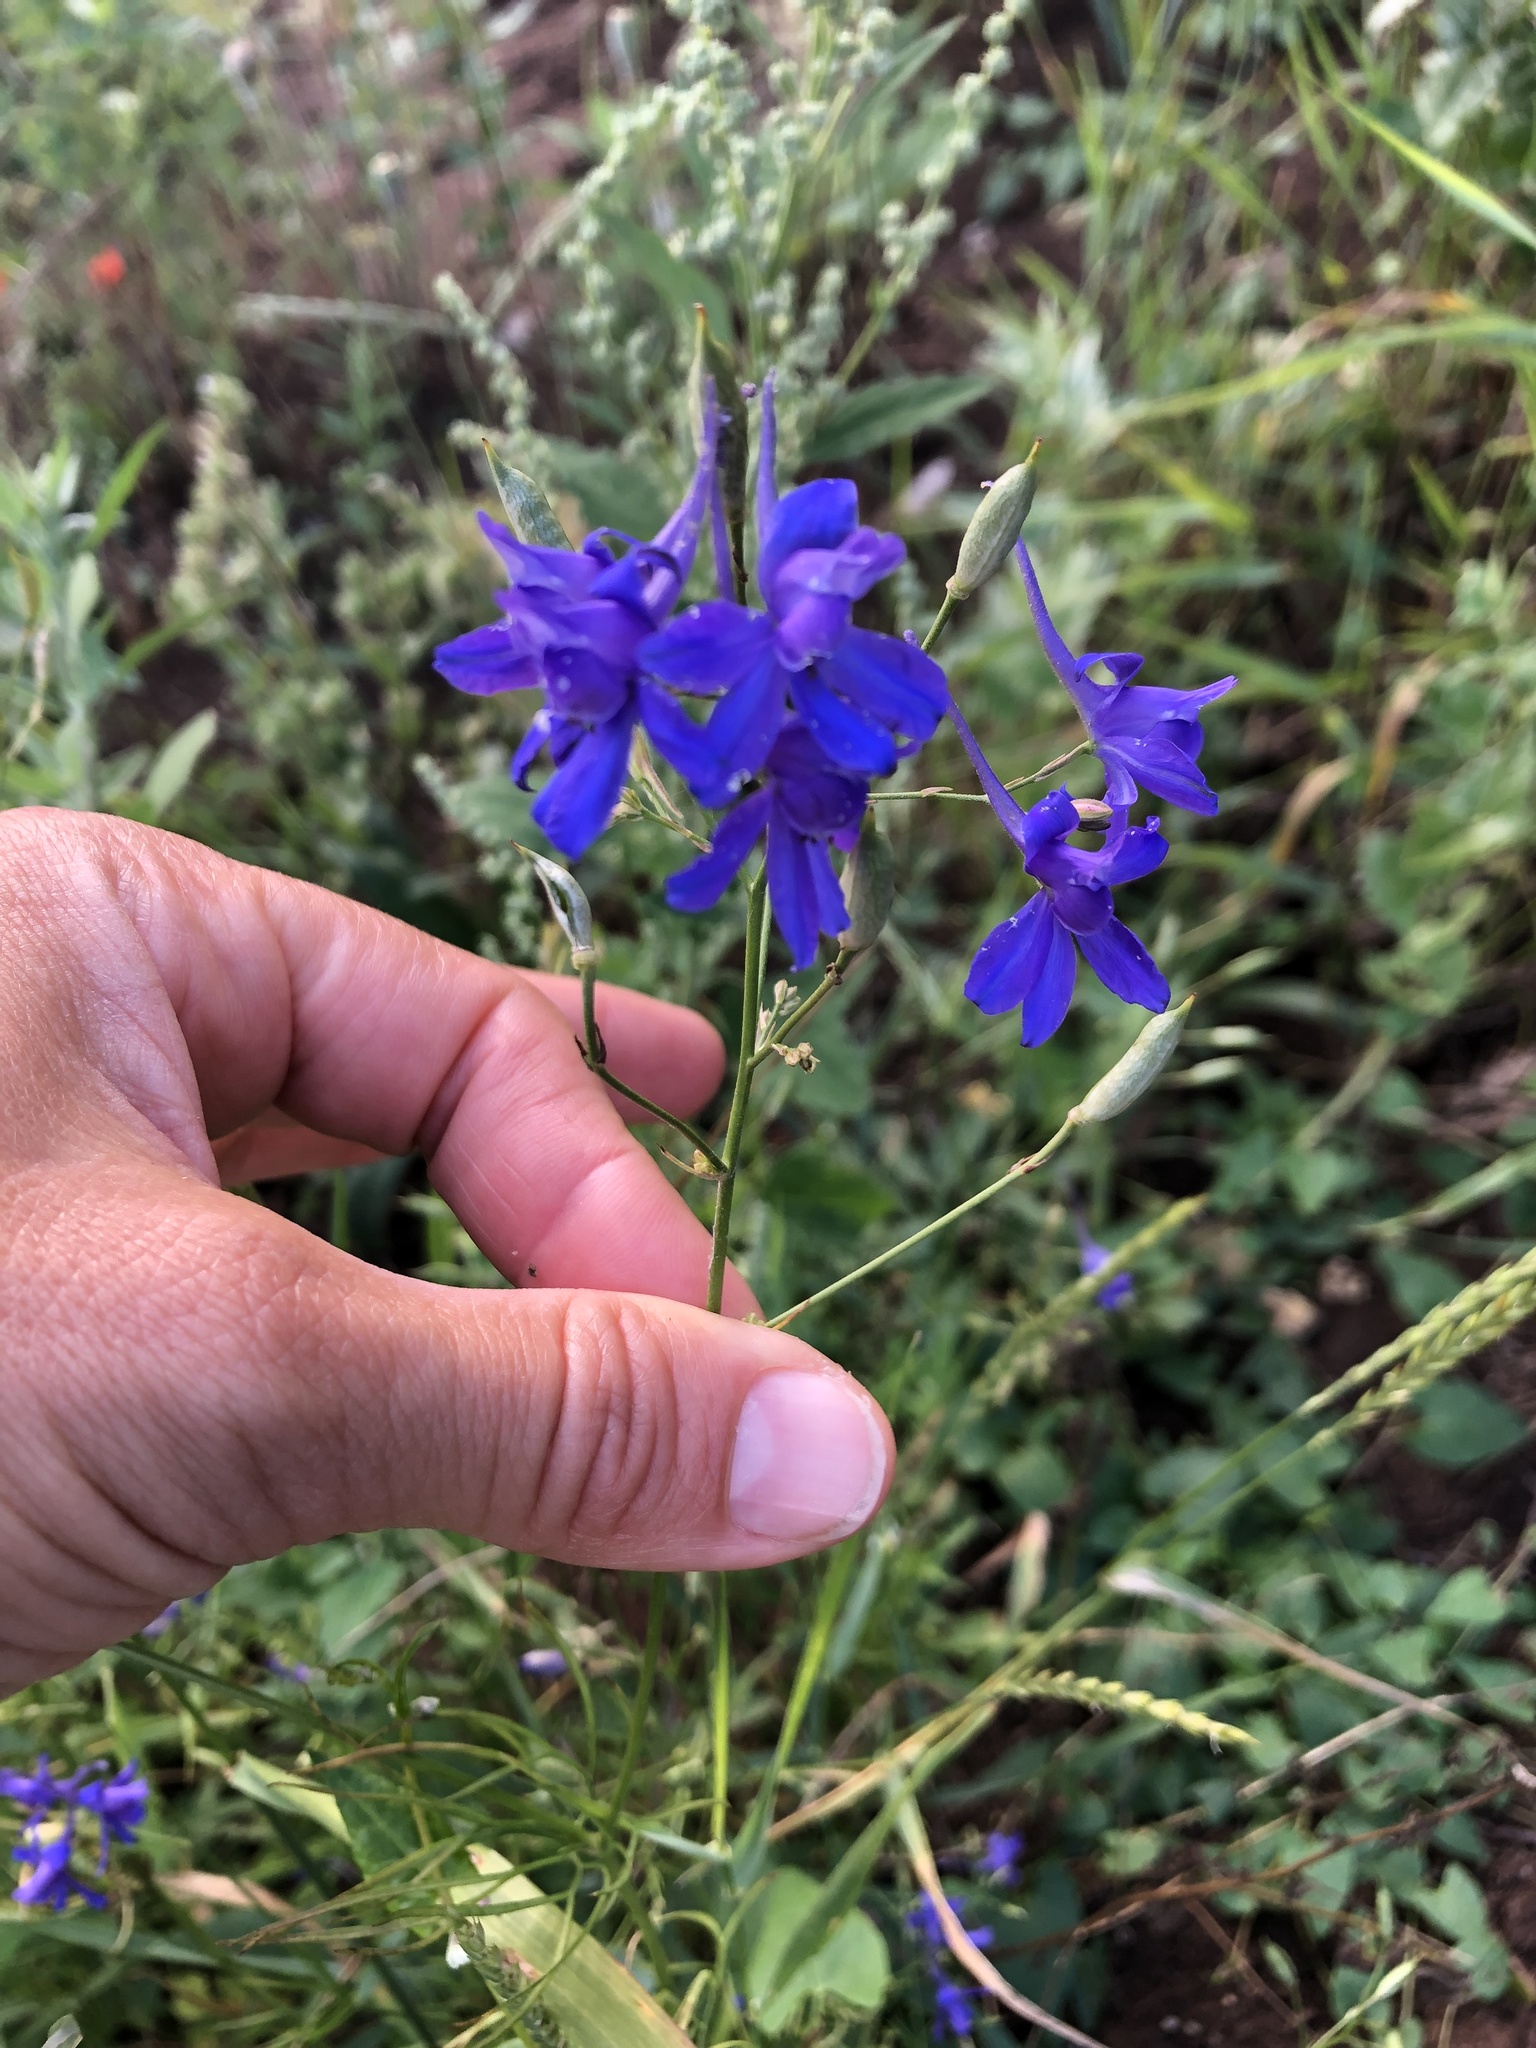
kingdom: Plantae
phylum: Tracheophyta
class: Magnoliopsida
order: Ranunculales
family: Ranunculaceae
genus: Delphinium
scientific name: Delphinium consolida
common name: Branching larkspur
